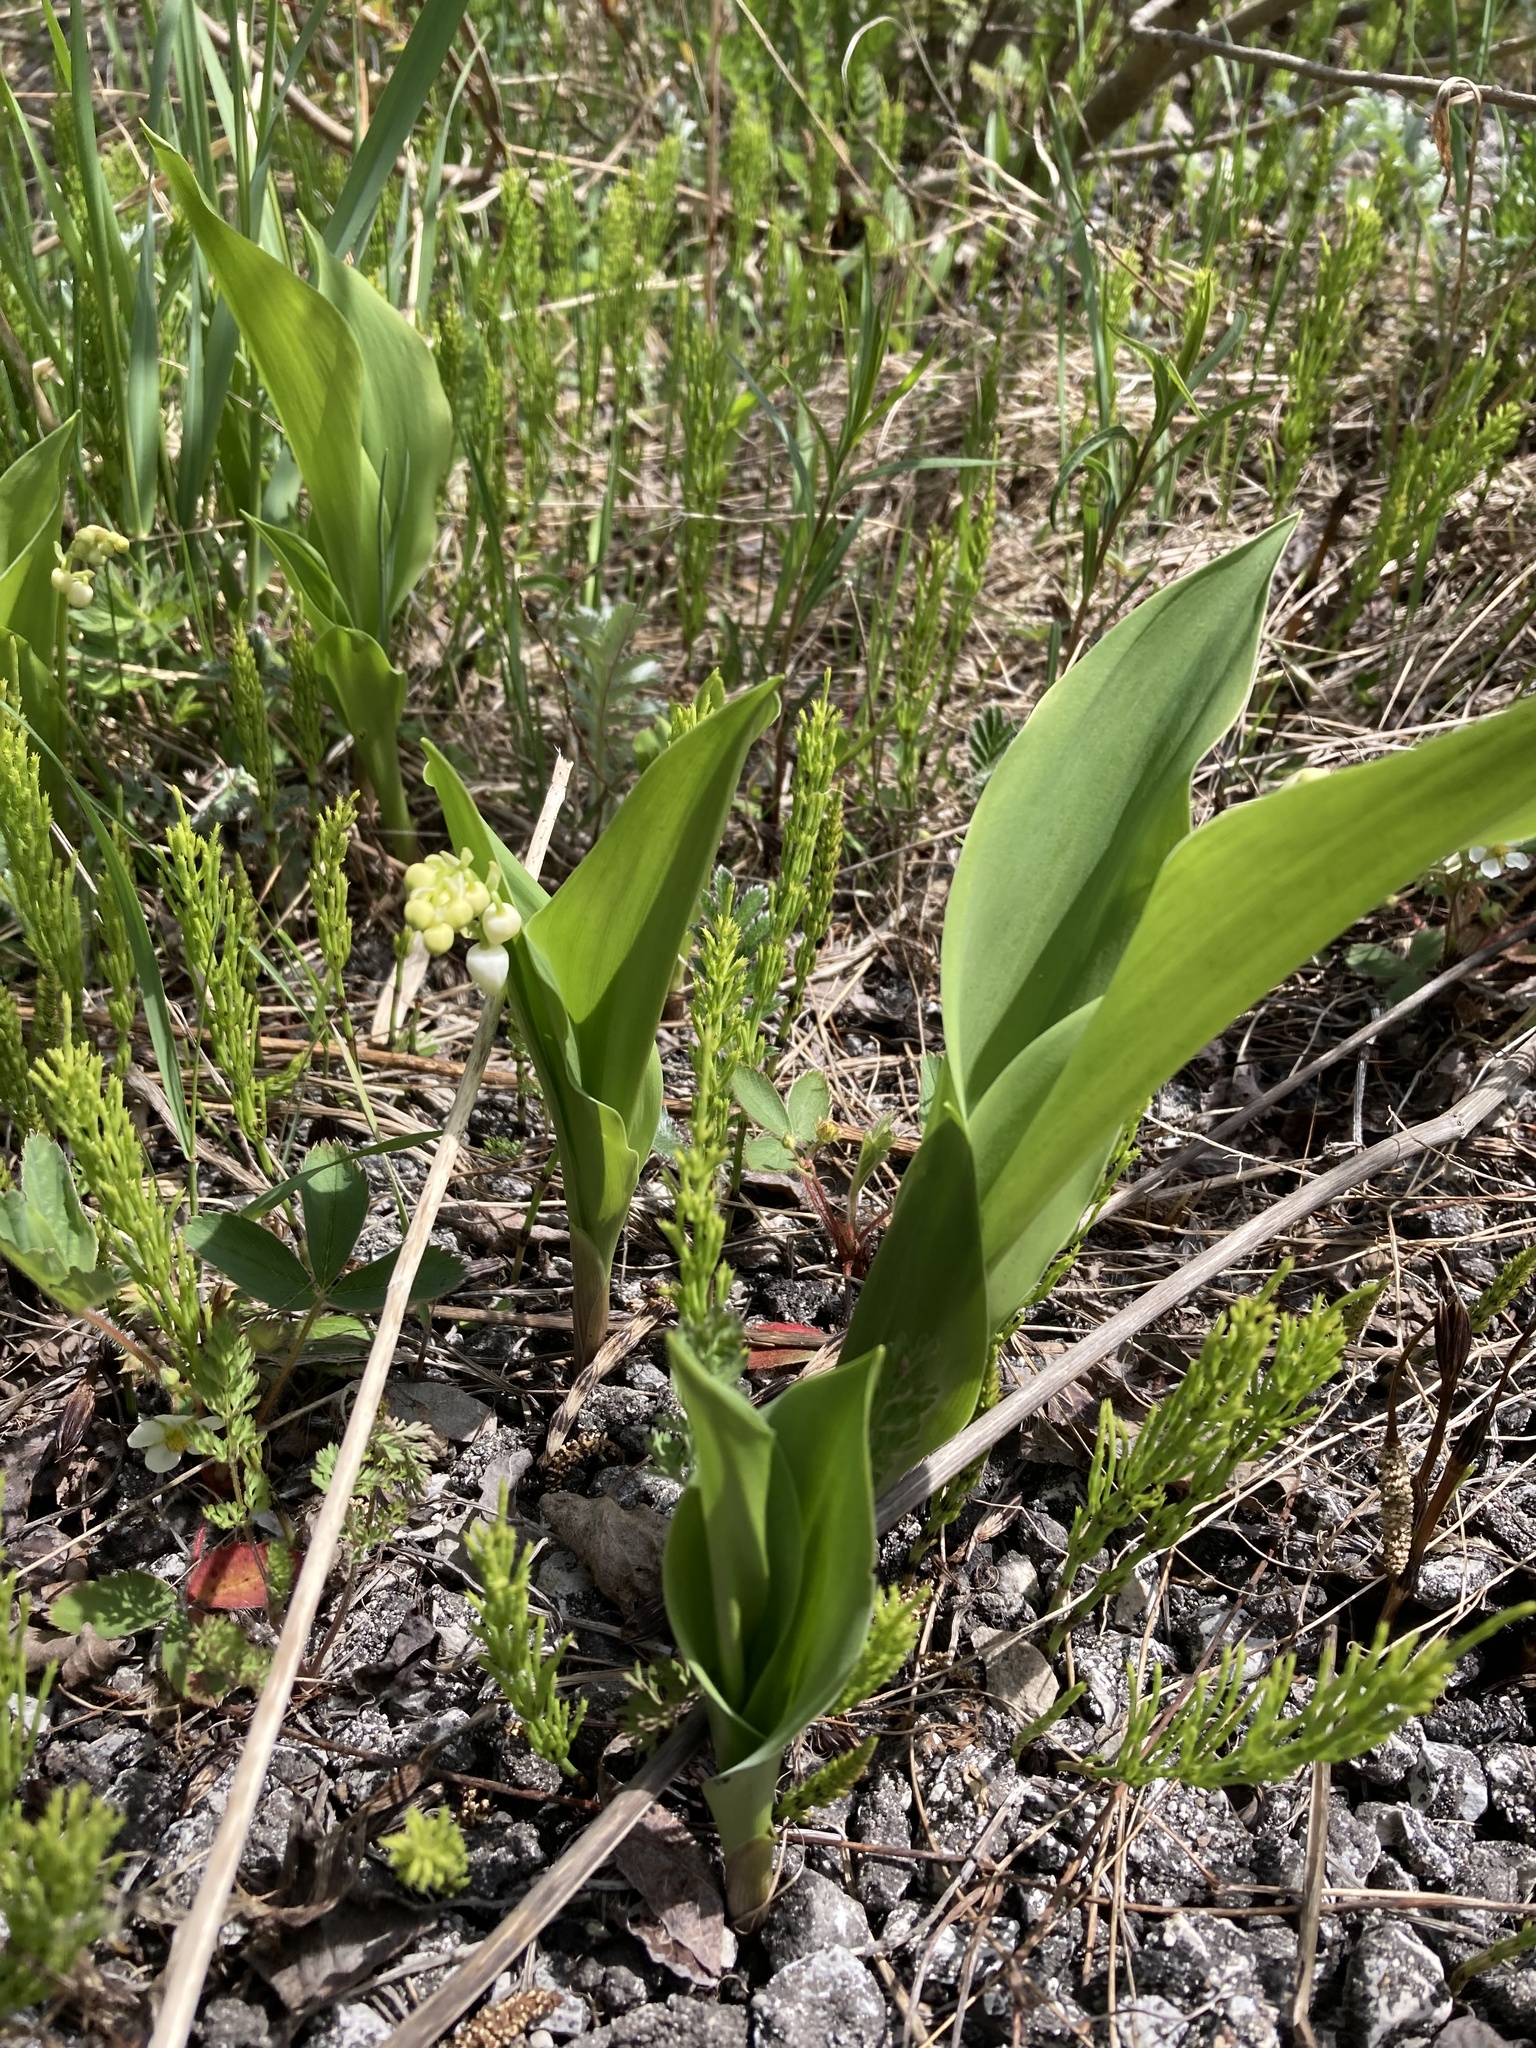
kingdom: Plantae
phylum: Tracheophyta
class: Liliopsida
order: Asparagales
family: Asparagaceae
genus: Convallaria
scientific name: Convallaria majalis
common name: Lily-of-the-valley
